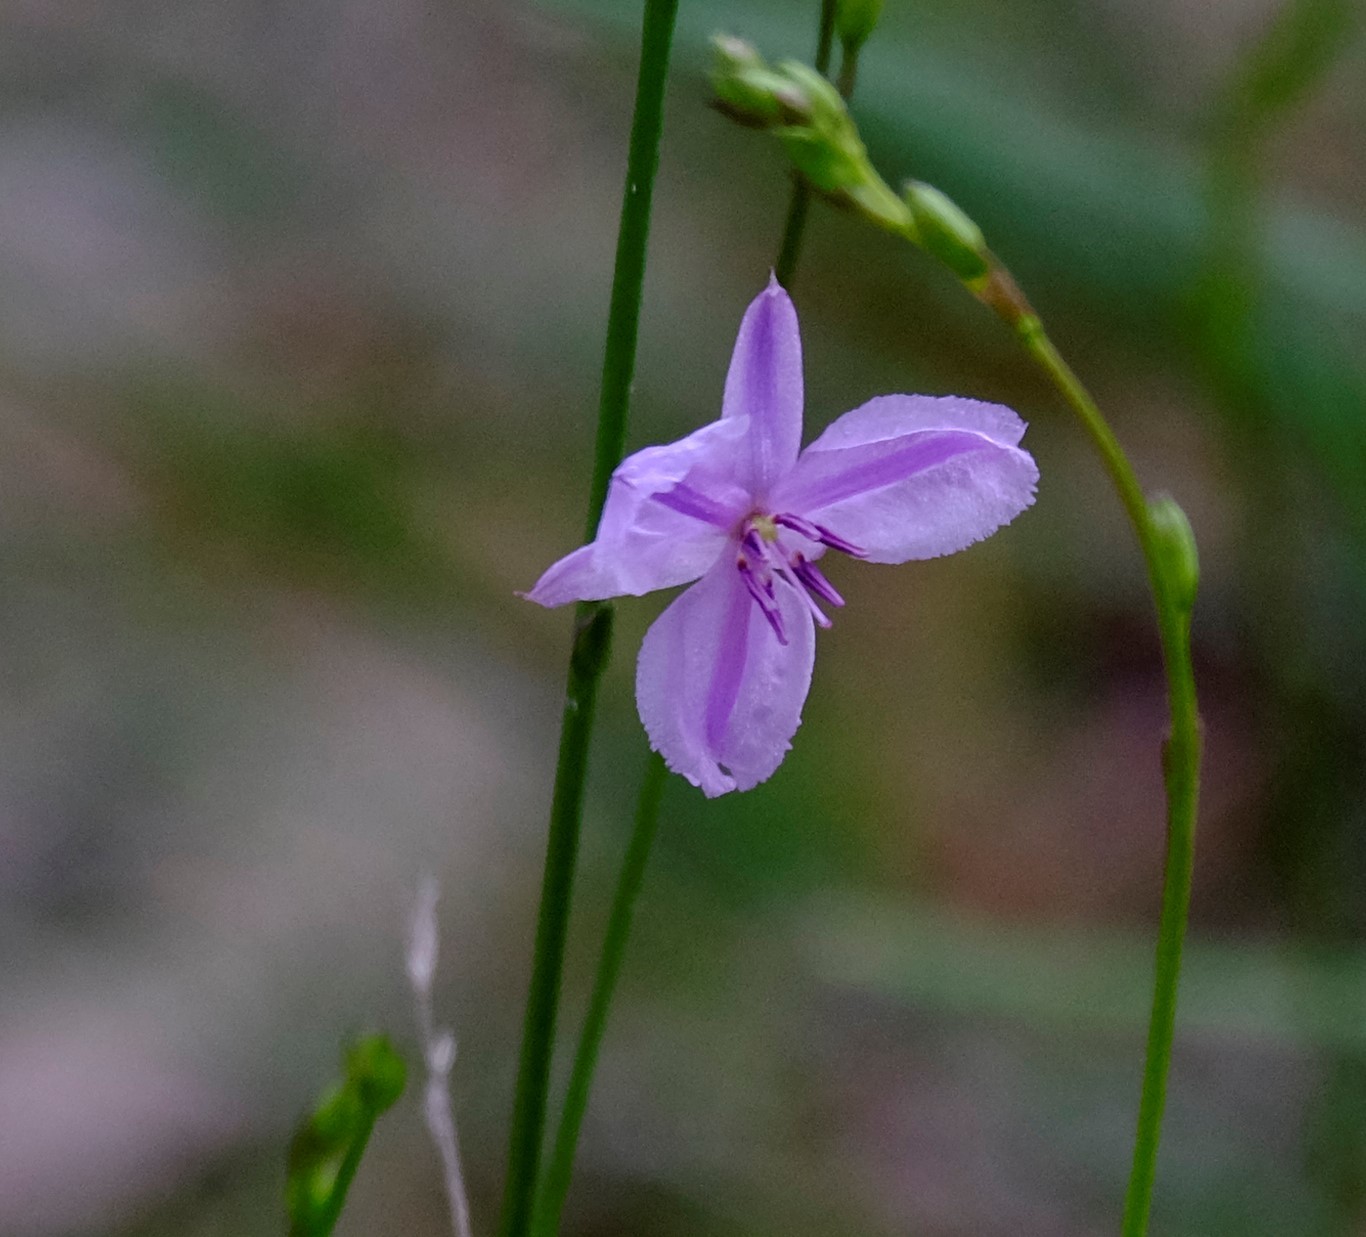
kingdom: Plantae
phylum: Tracheophyta
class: Liliopsida
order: Asparagales
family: Asparagaceae
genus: Arthropodium
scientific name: Arthropodium strictum
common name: Chocolate-lily
